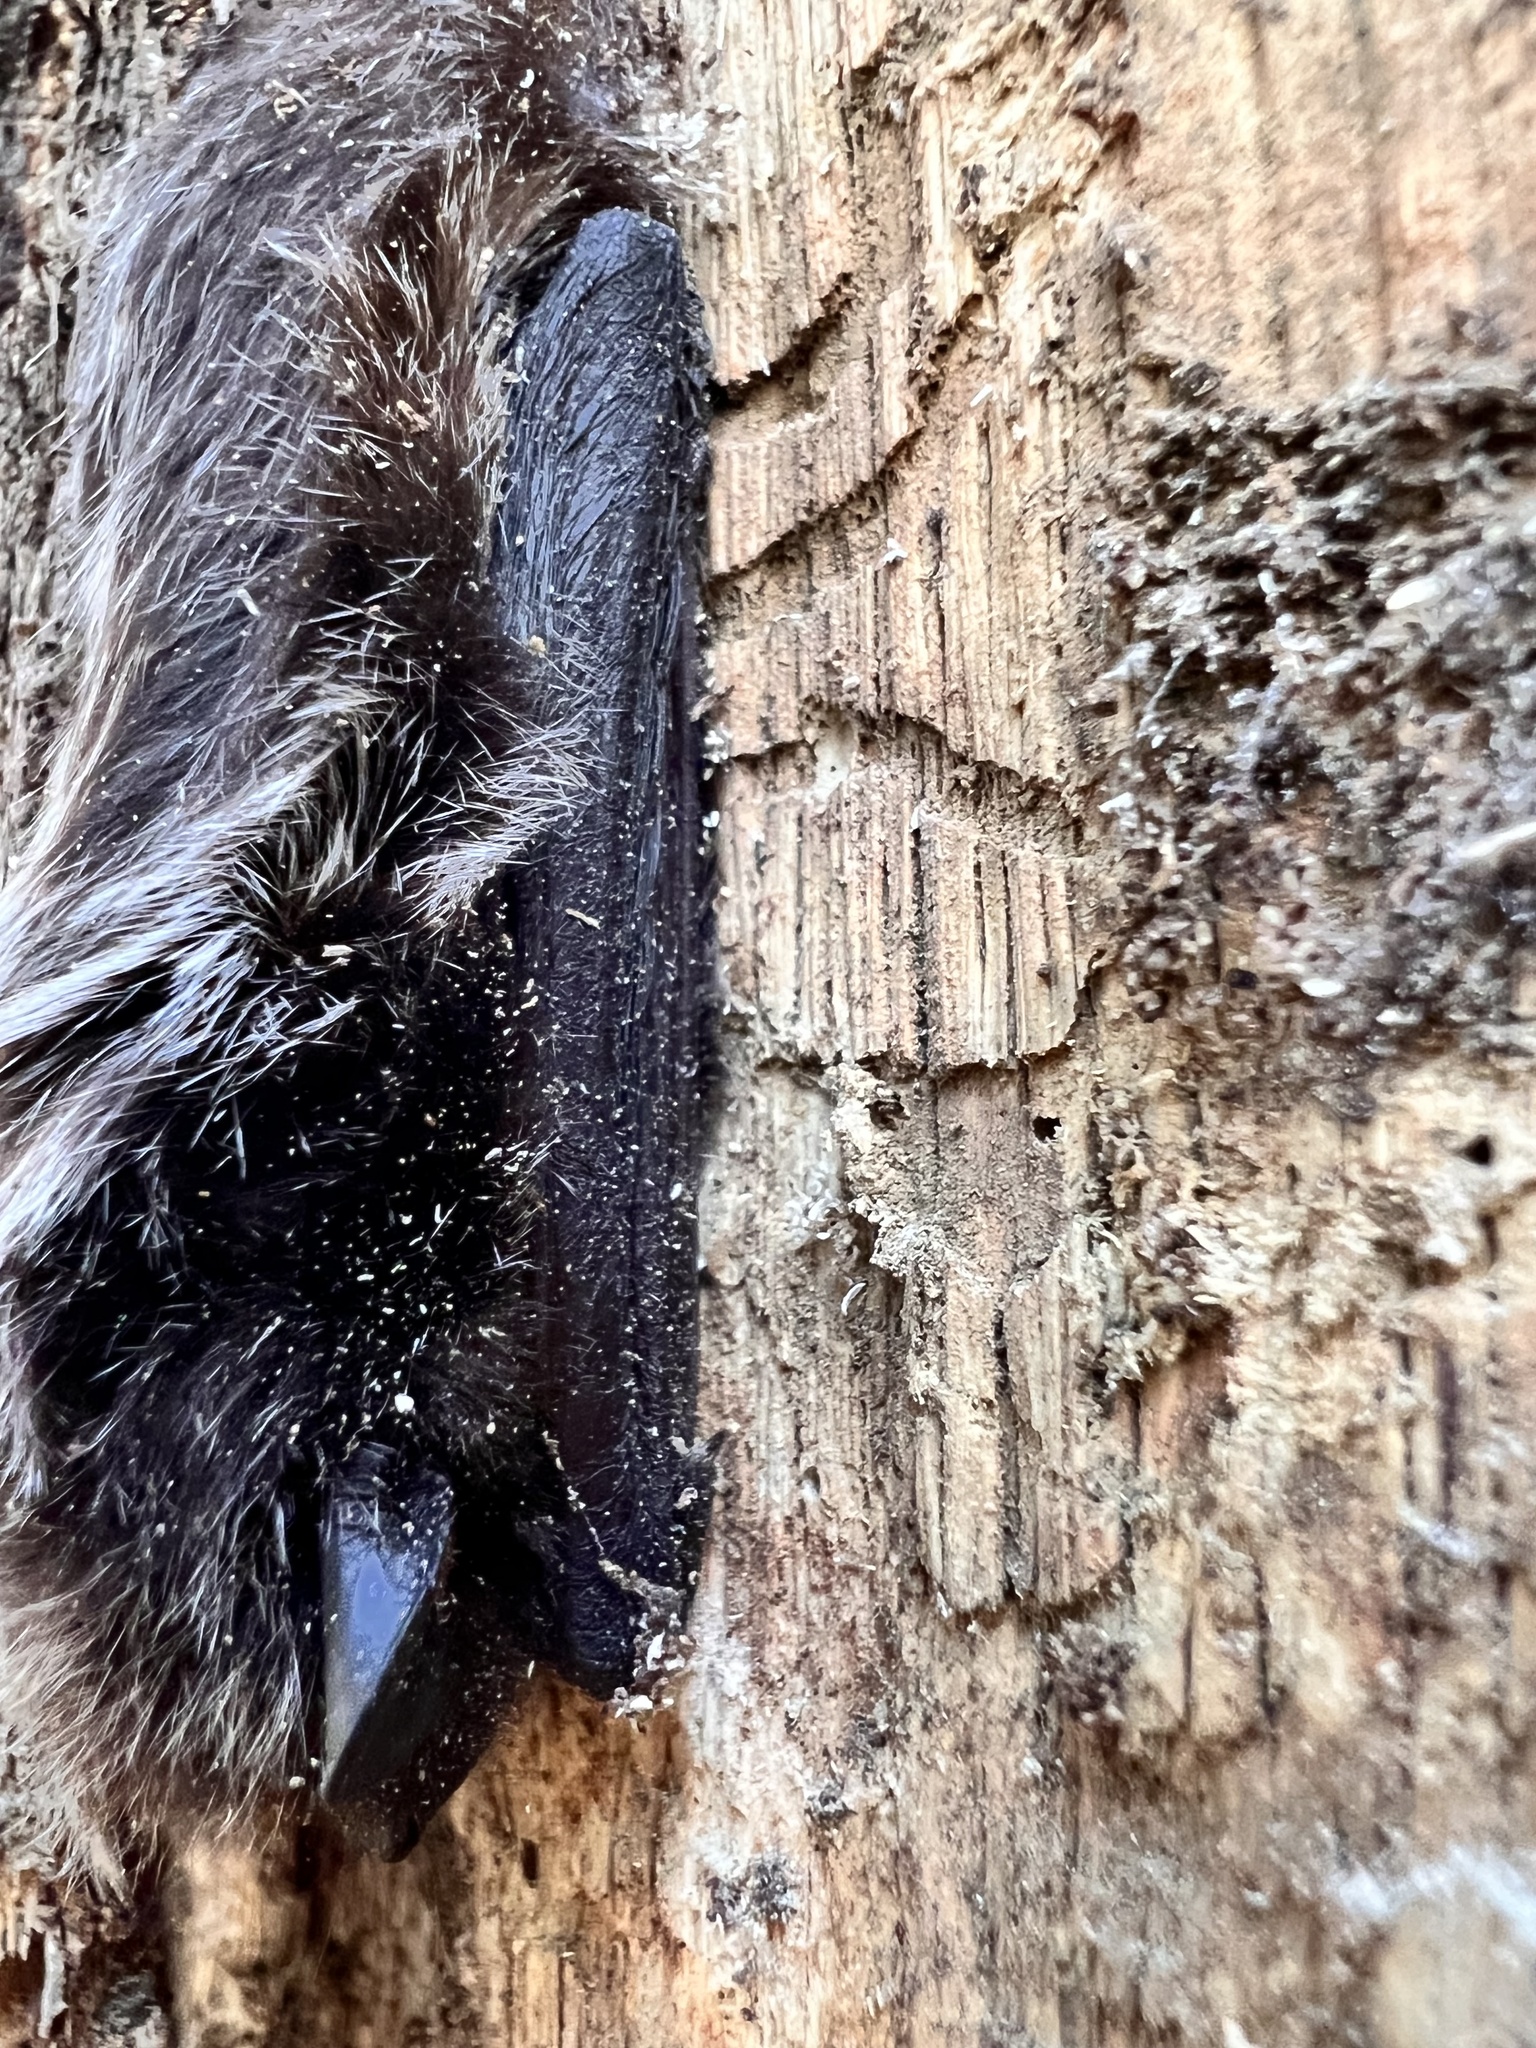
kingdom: Animalia
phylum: Chordata
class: Mammalia
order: Chiroptera
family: Vespertilionidae
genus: Lasionycteris
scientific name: Lasionycteris noctivagans
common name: Silver-haired bat
